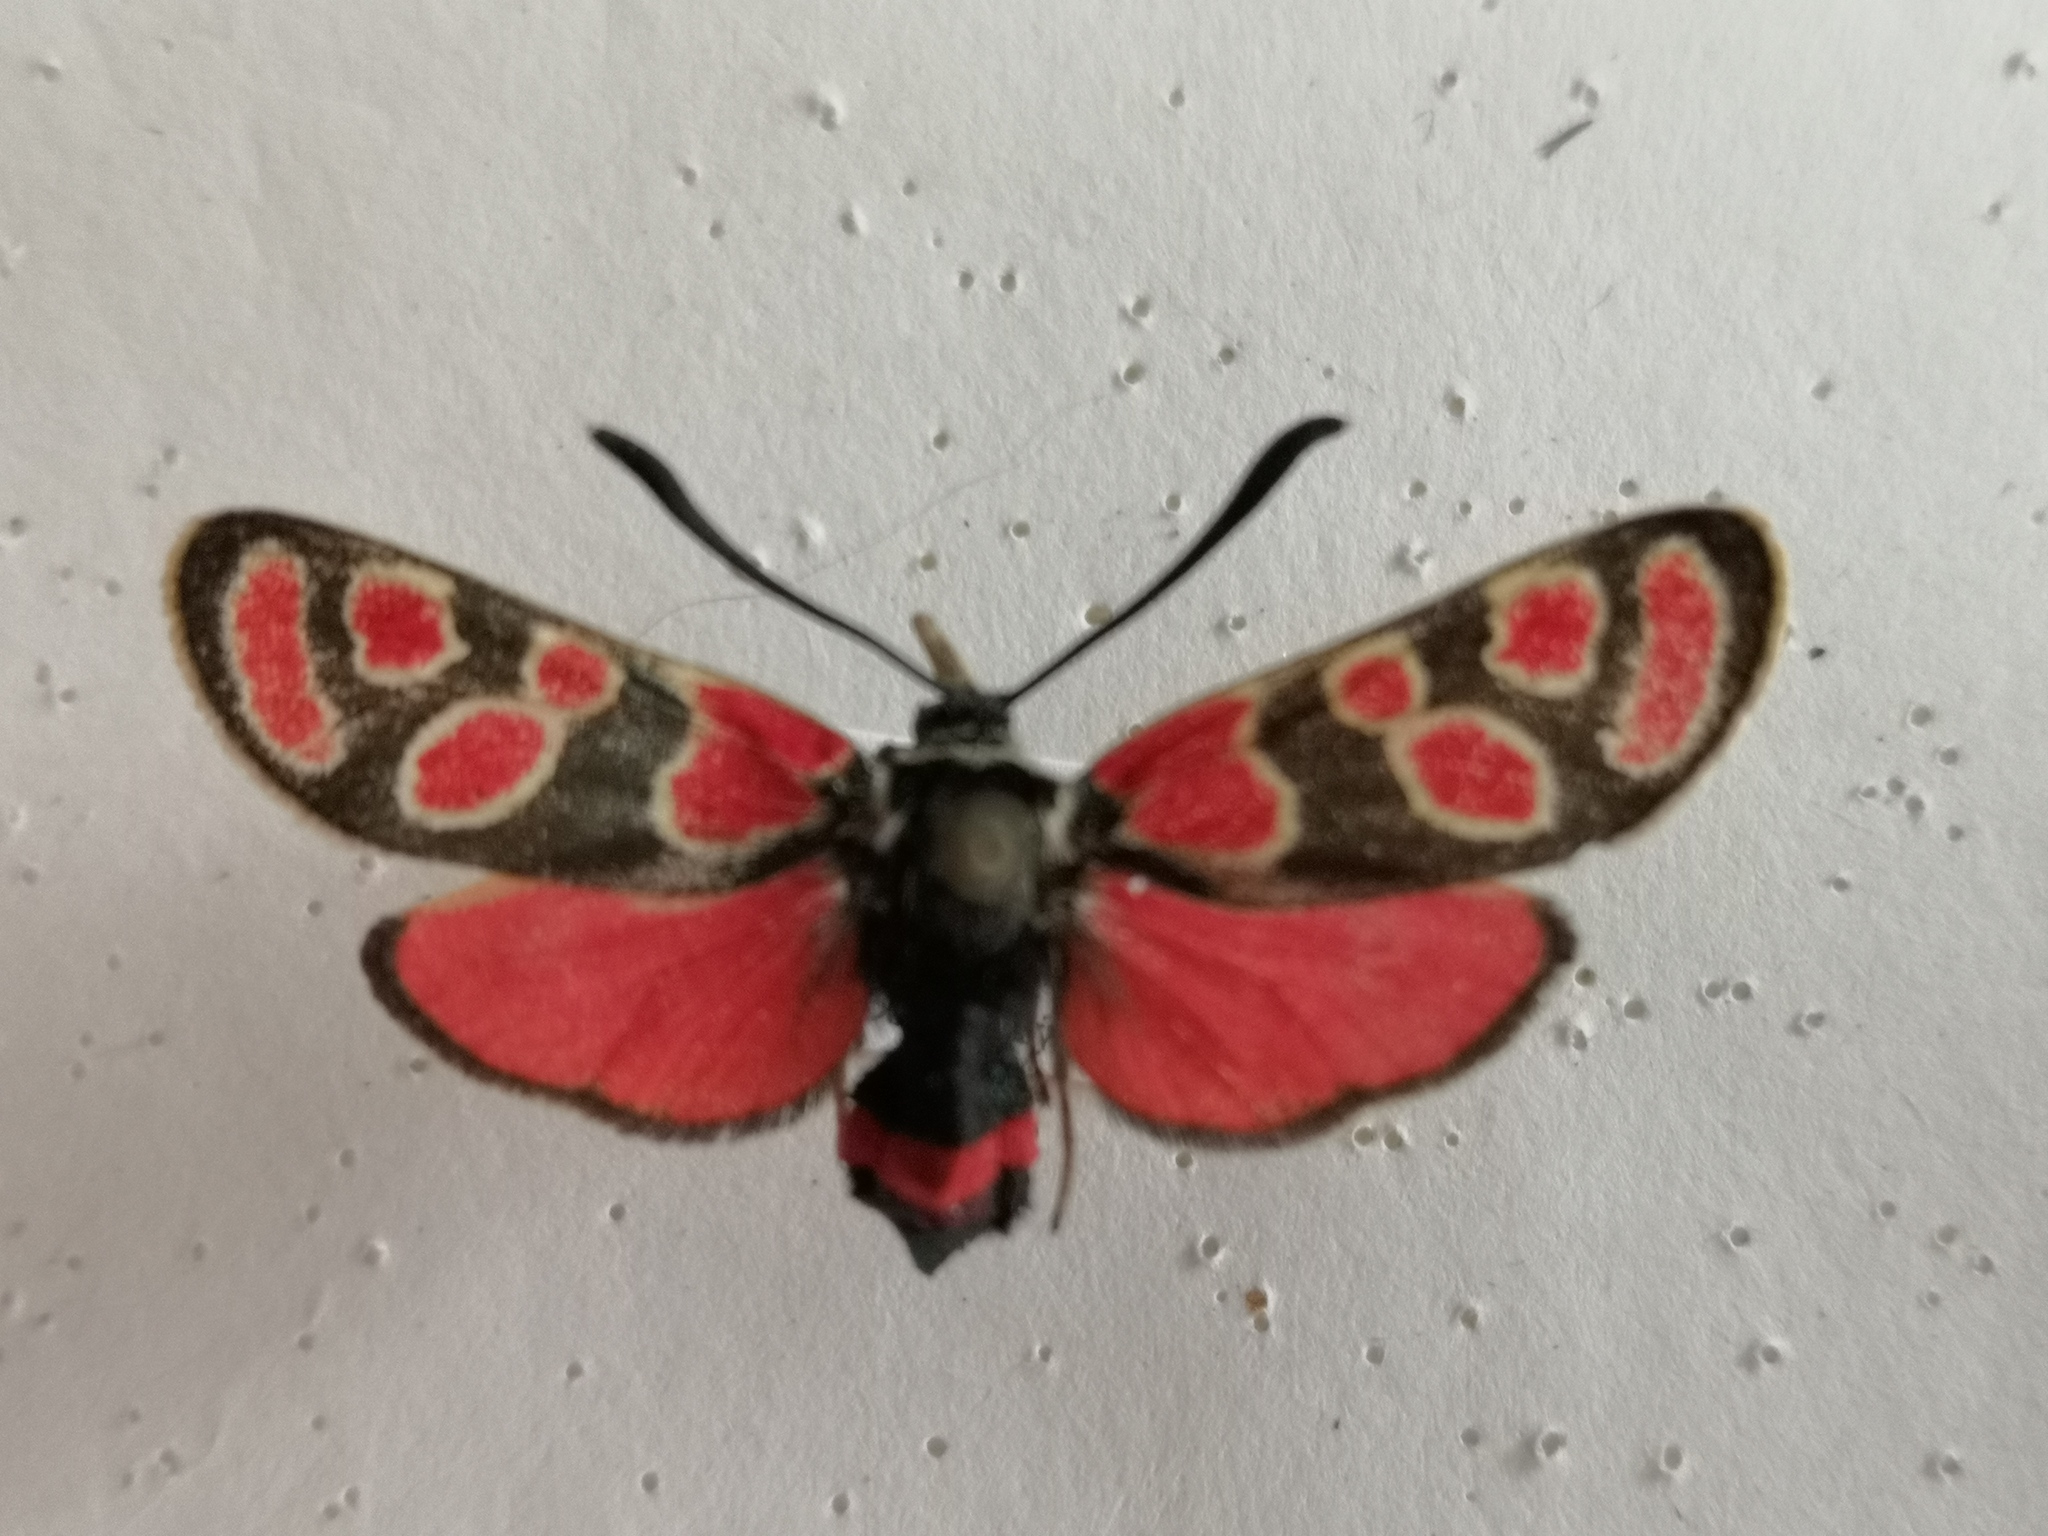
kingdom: Animalia
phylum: Arthropoda
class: Insecta
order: Lepidoptera
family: Zygaenidae
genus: Zygaena
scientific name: Zygaena carniolica
